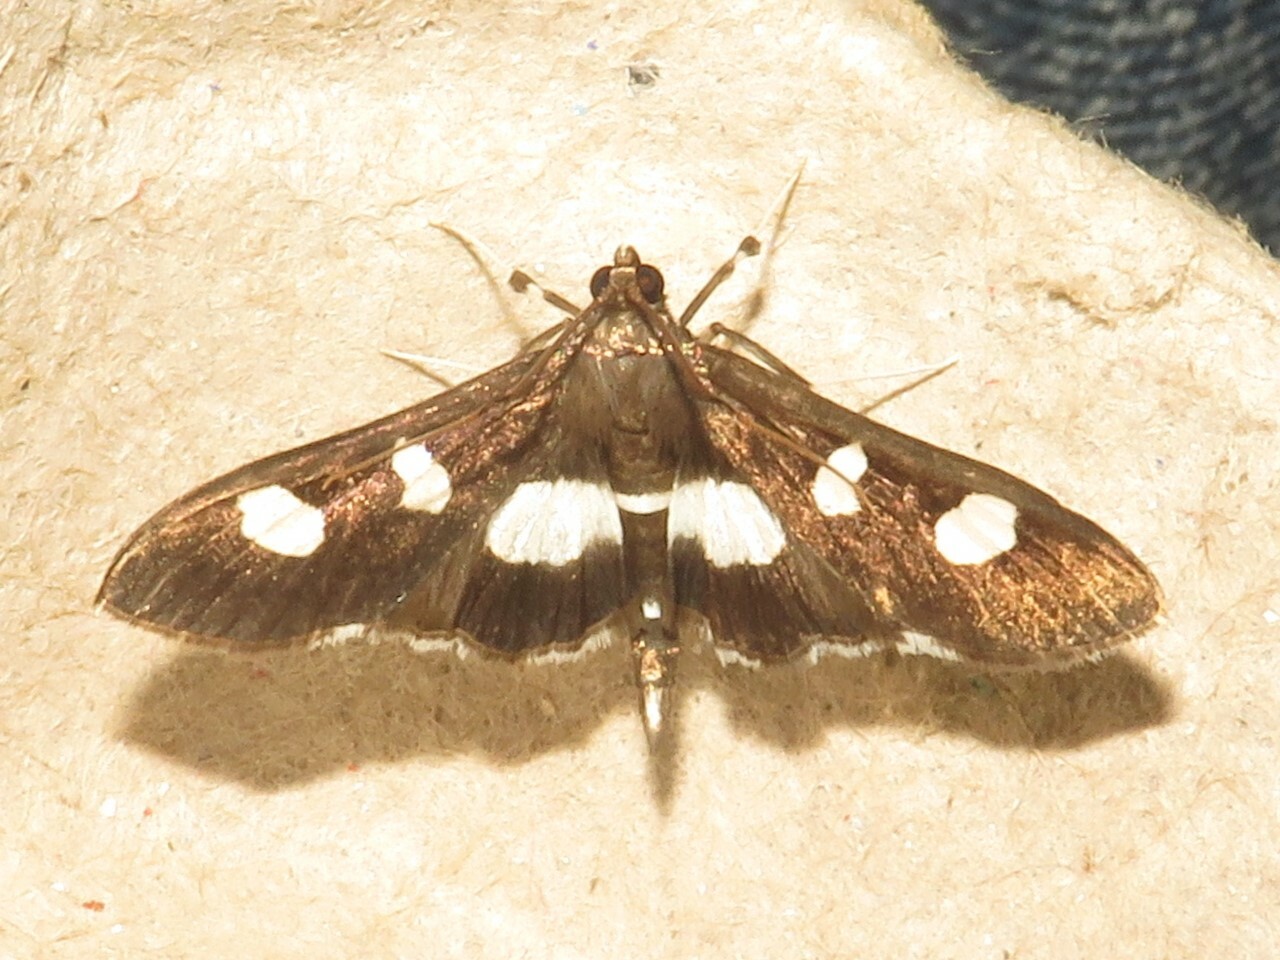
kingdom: Animalia
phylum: Arthropoda
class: Insecta
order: Lepidoptera
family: Crambidae
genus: Desmia
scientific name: Desmia funeralis
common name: Grape leaf folder moth
